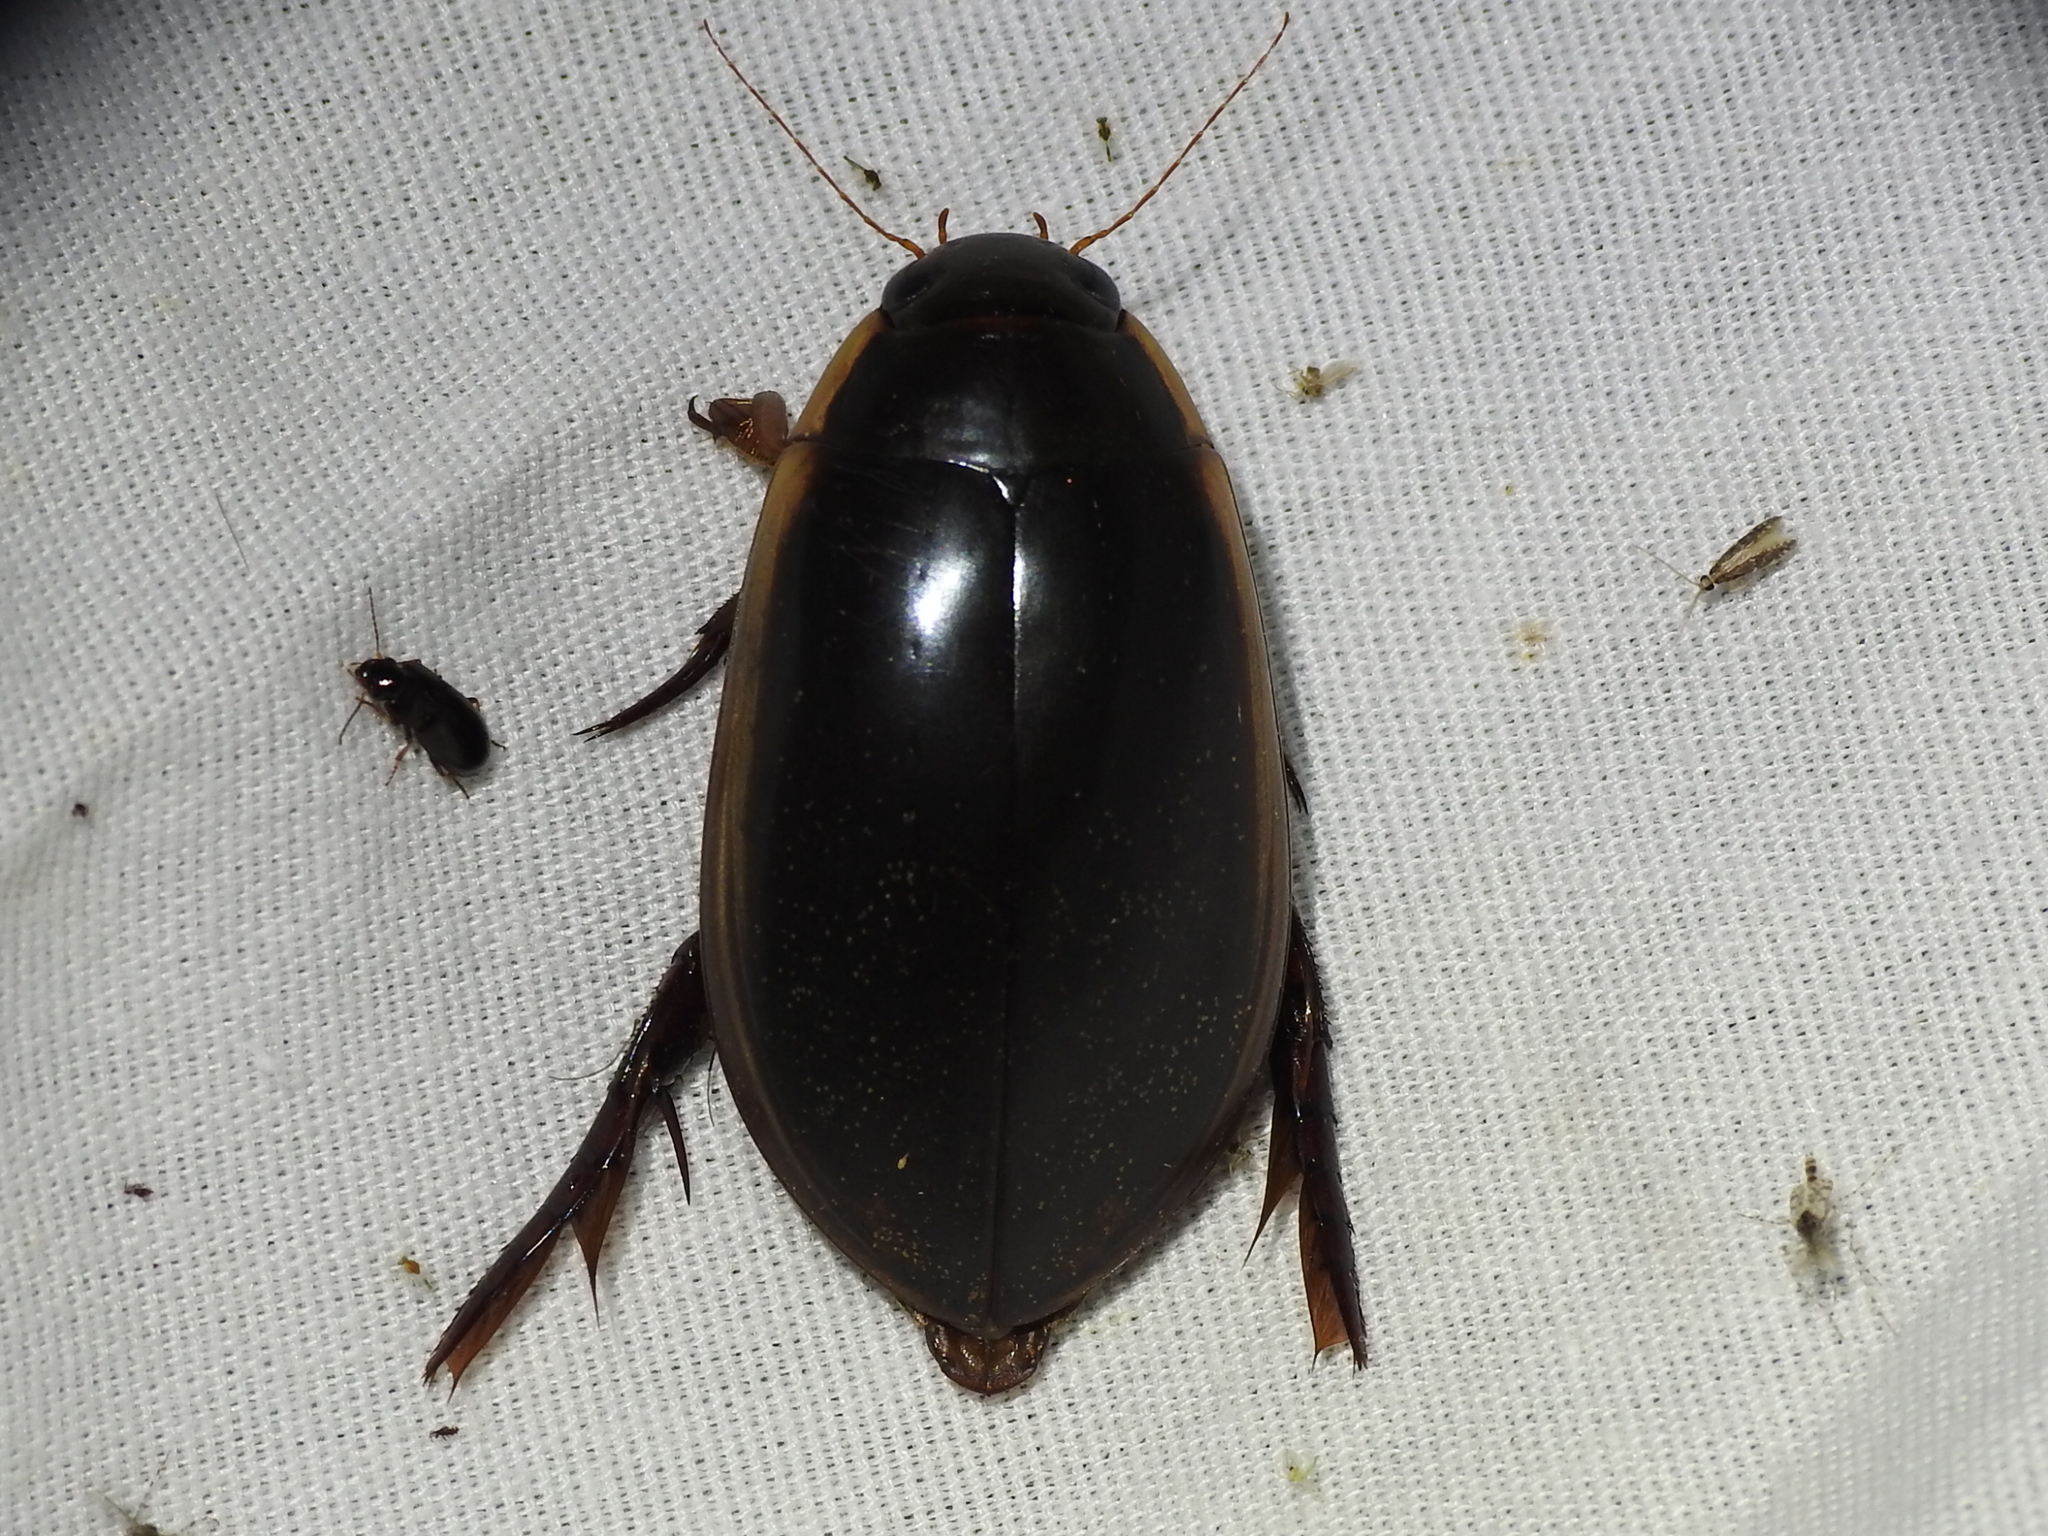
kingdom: Animalia
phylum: Arthropoda
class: Insecta
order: Coleoptera
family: Dytiscidae
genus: Cybister
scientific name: Cybister fimbriolatus
